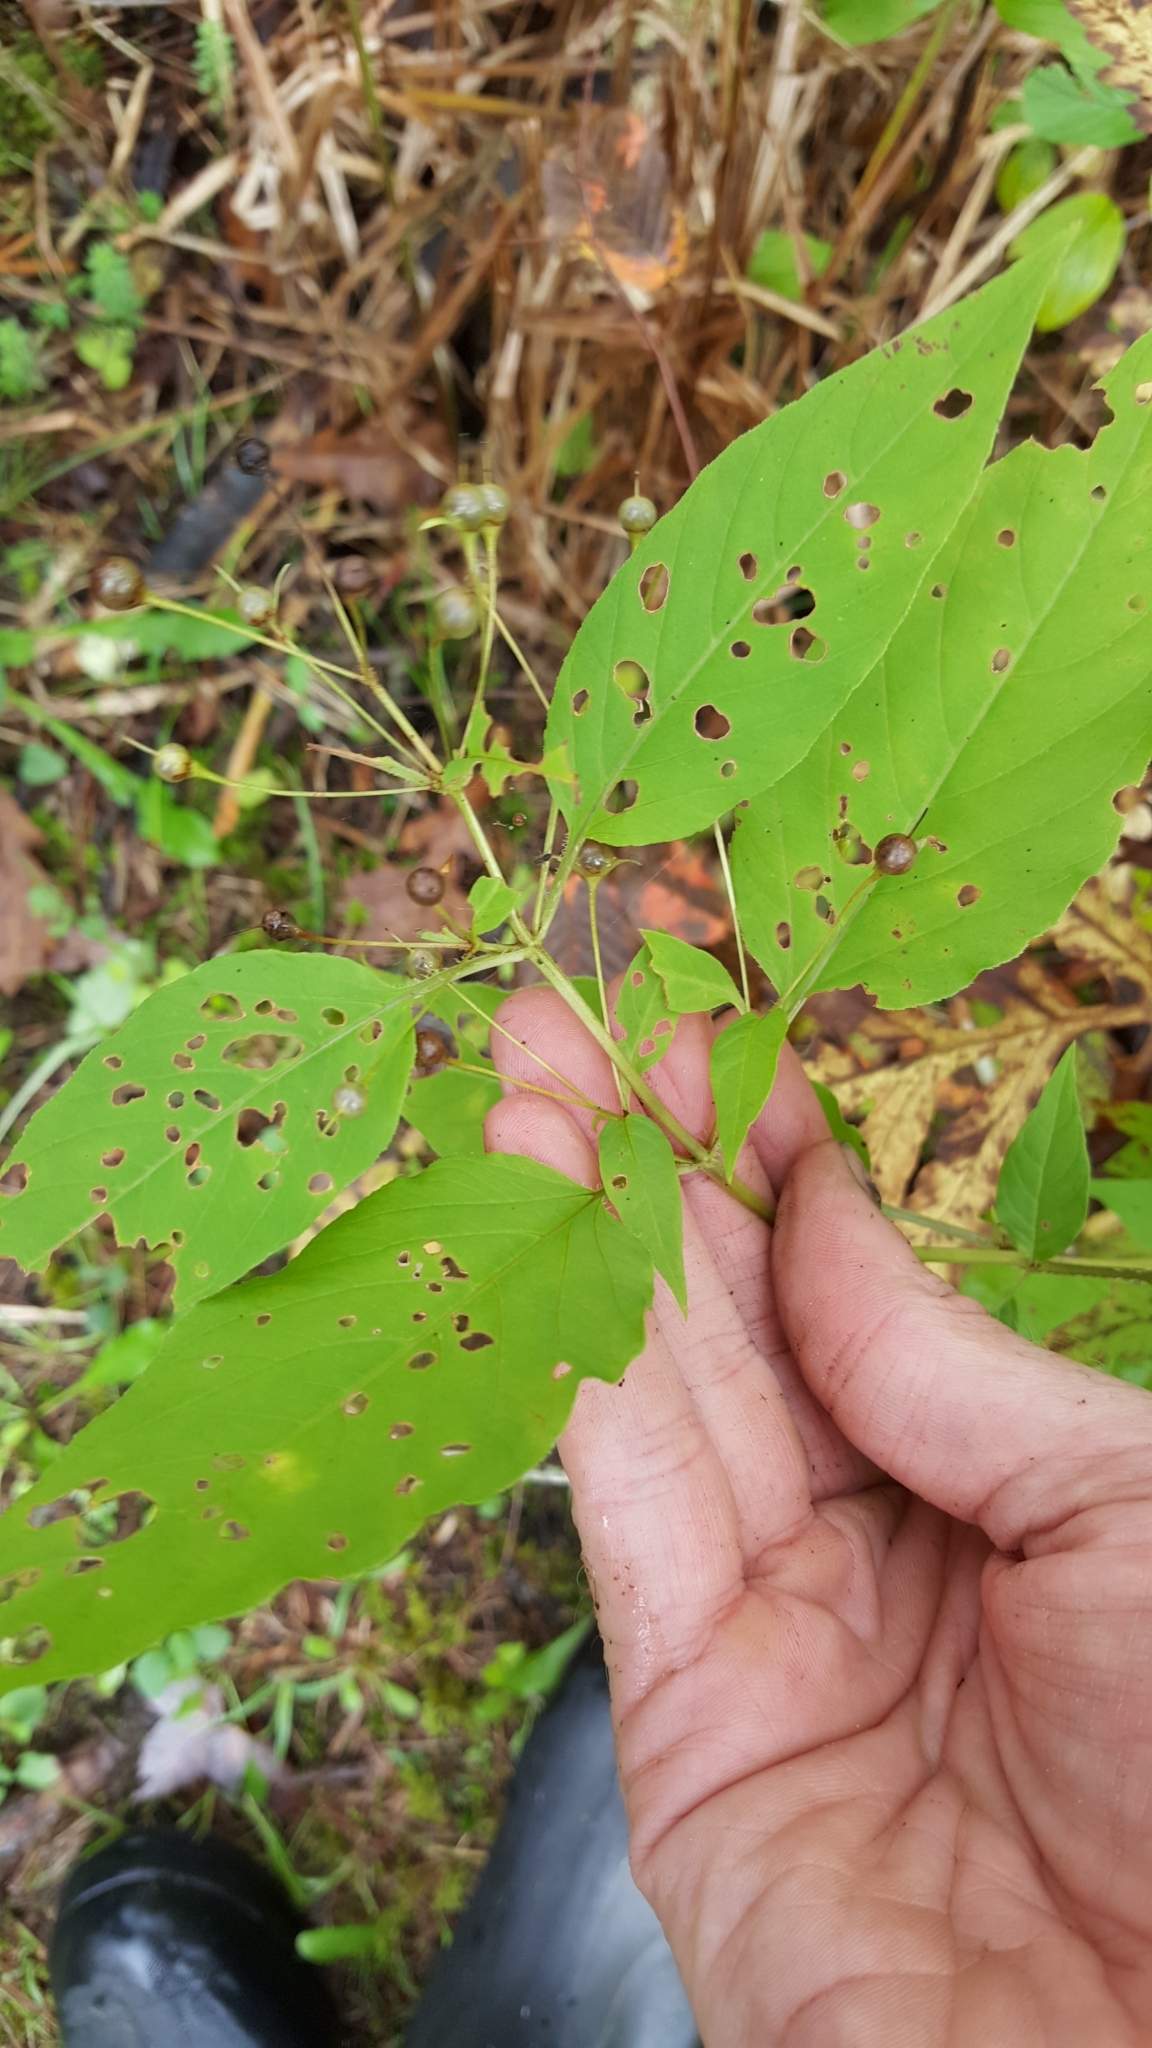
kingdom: Plantae
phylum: Tracheophyta
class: Magnoliopsida
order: Ericales
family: Primulaceae
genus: Lysimachia
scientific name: Lysimachia ciliata
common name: Fringed loosestrife
